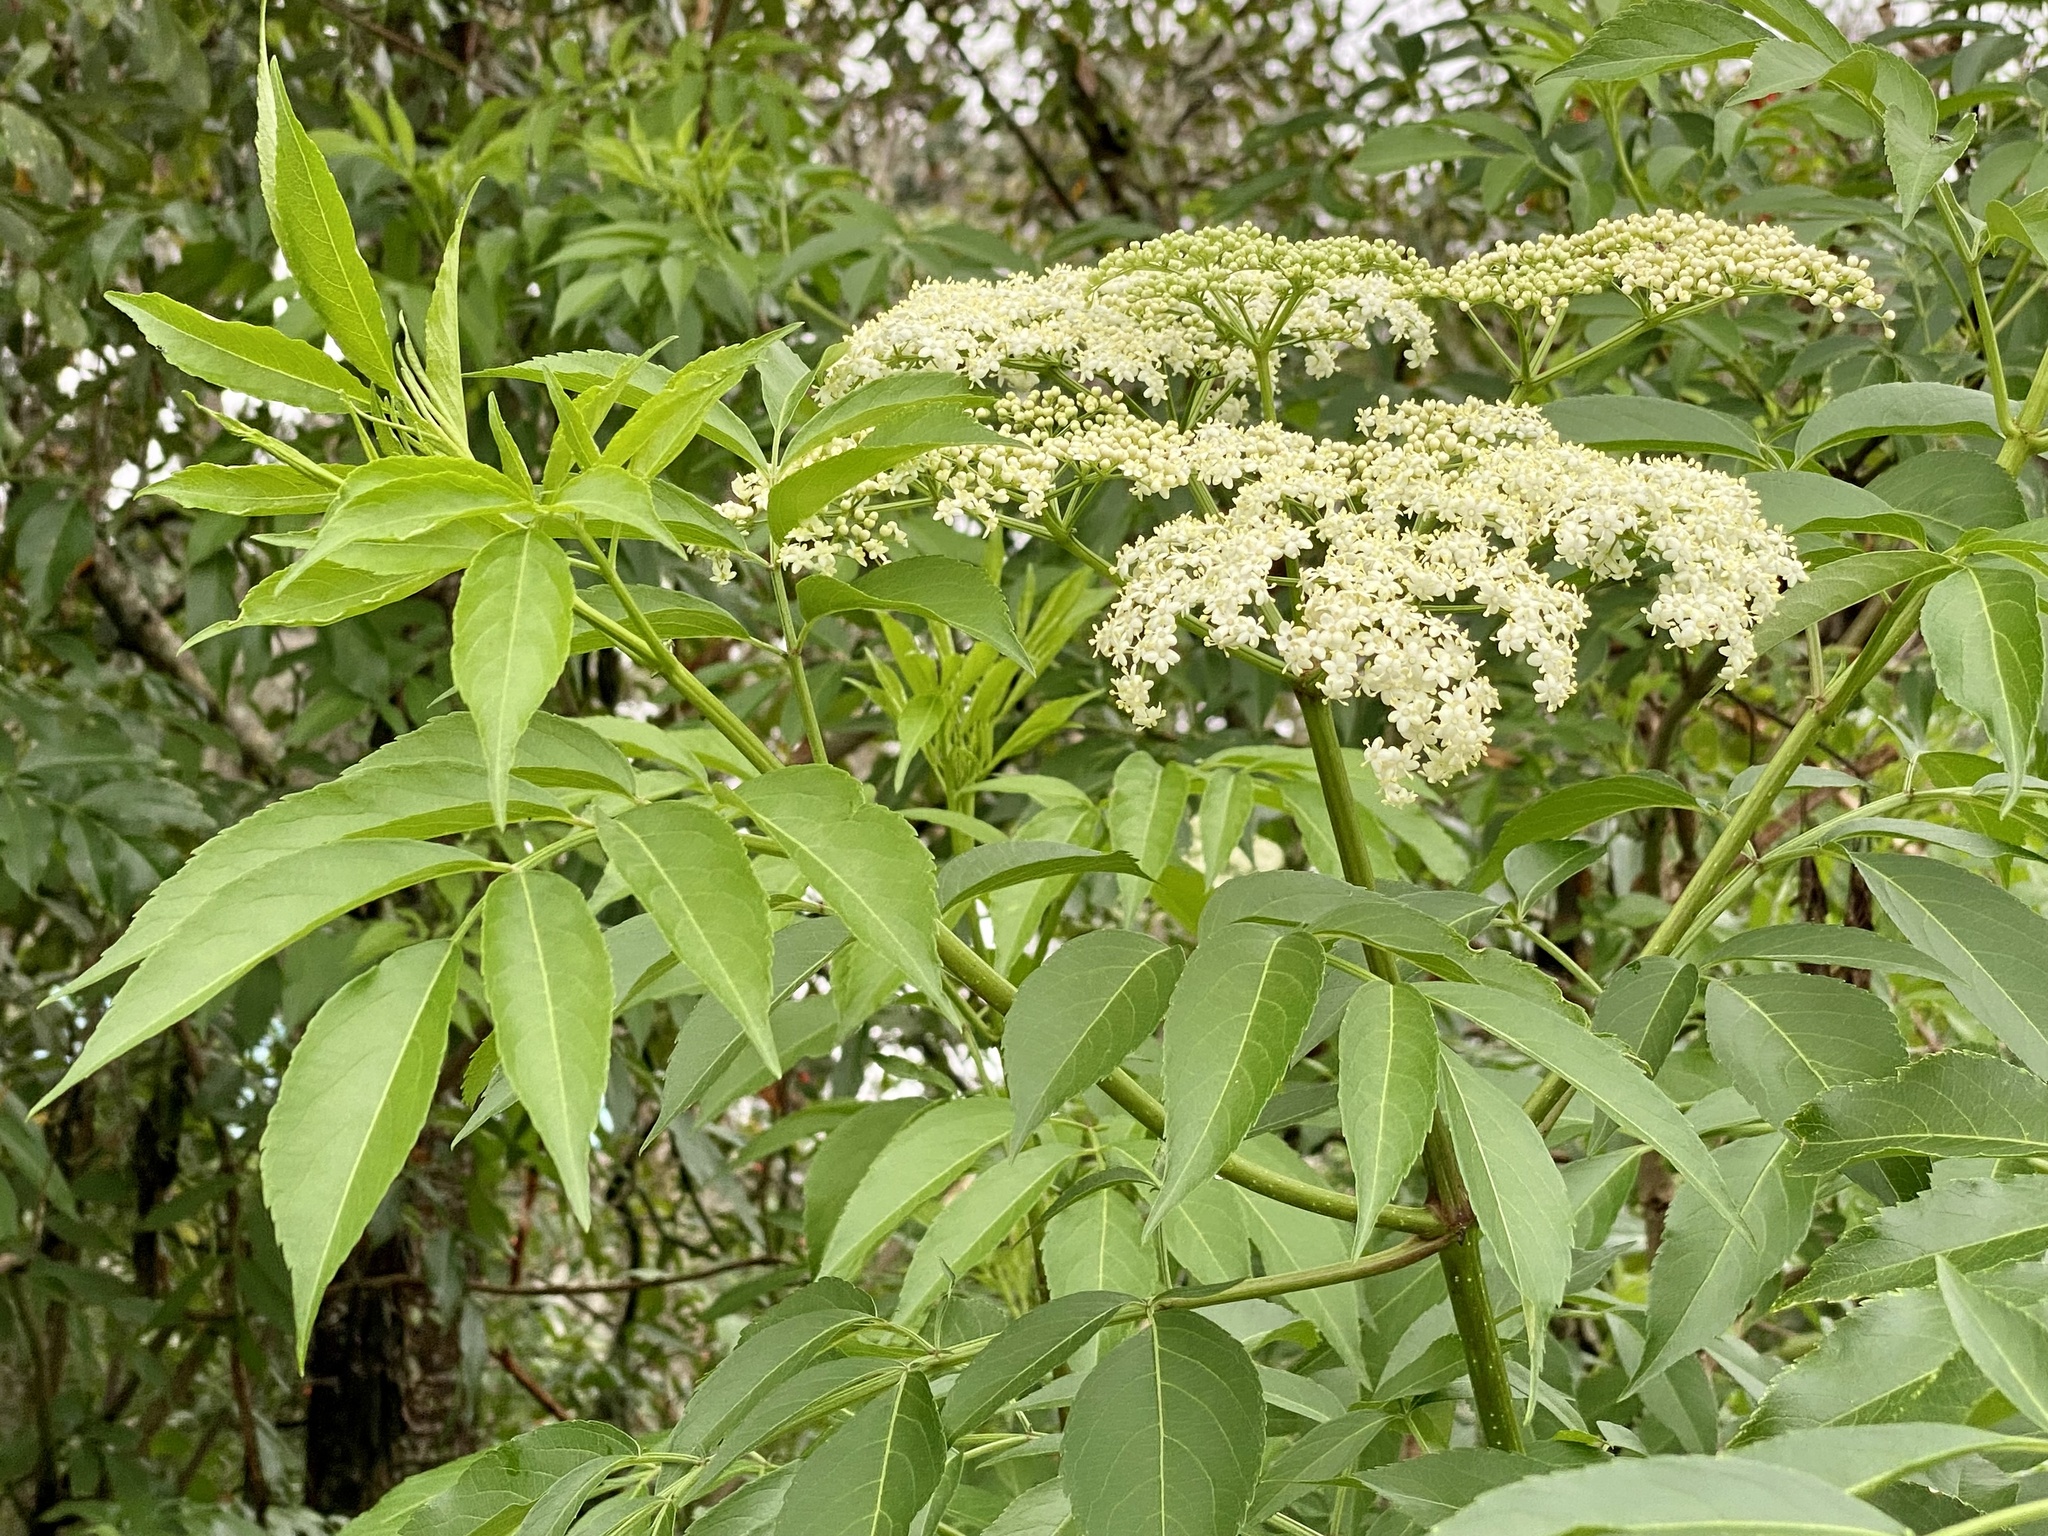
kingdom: Plantae
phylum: Tracheophyta
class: Magnoliopsida
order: Dipsacales
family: Viburnaceae
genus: Sambucus
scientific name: Sambucus canadensis
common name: American elder
